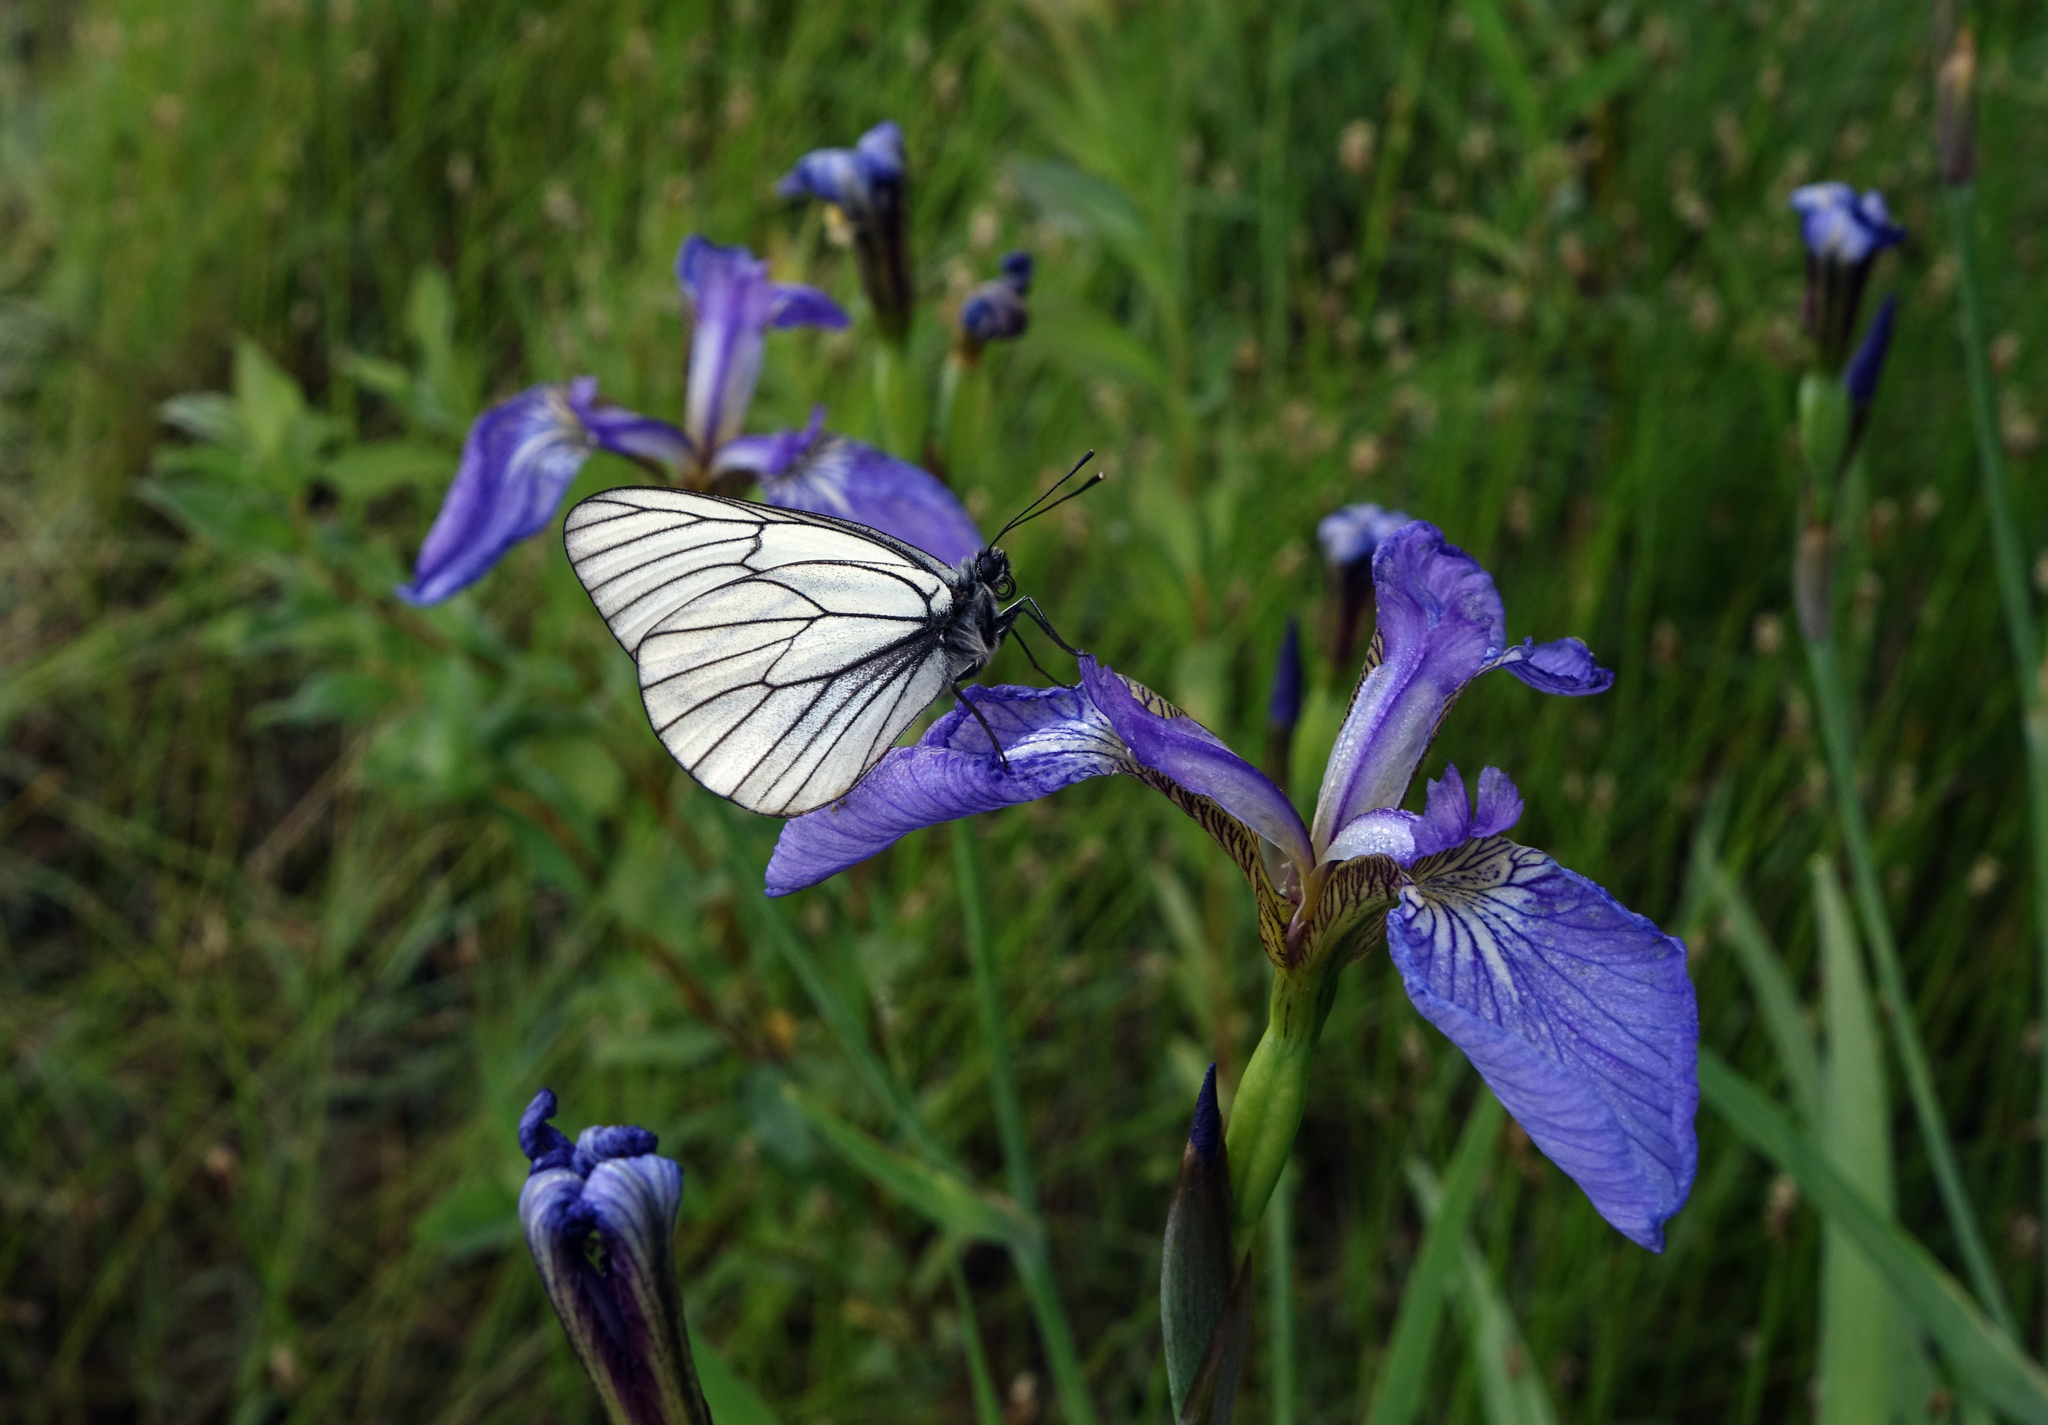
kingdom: Animalia
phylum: Arthropoda
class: Insecta
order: Lepidoptera
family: Pieridae
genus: Aporia
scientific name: Aporia crataegi
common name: Black-veined white
